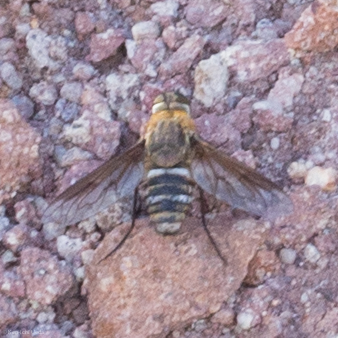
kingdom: Animalia
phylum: Arthropoda
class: Insecta
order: Diptera
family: Bombyliidae
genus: Exoprosopa
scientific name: Exoprosopa parda
